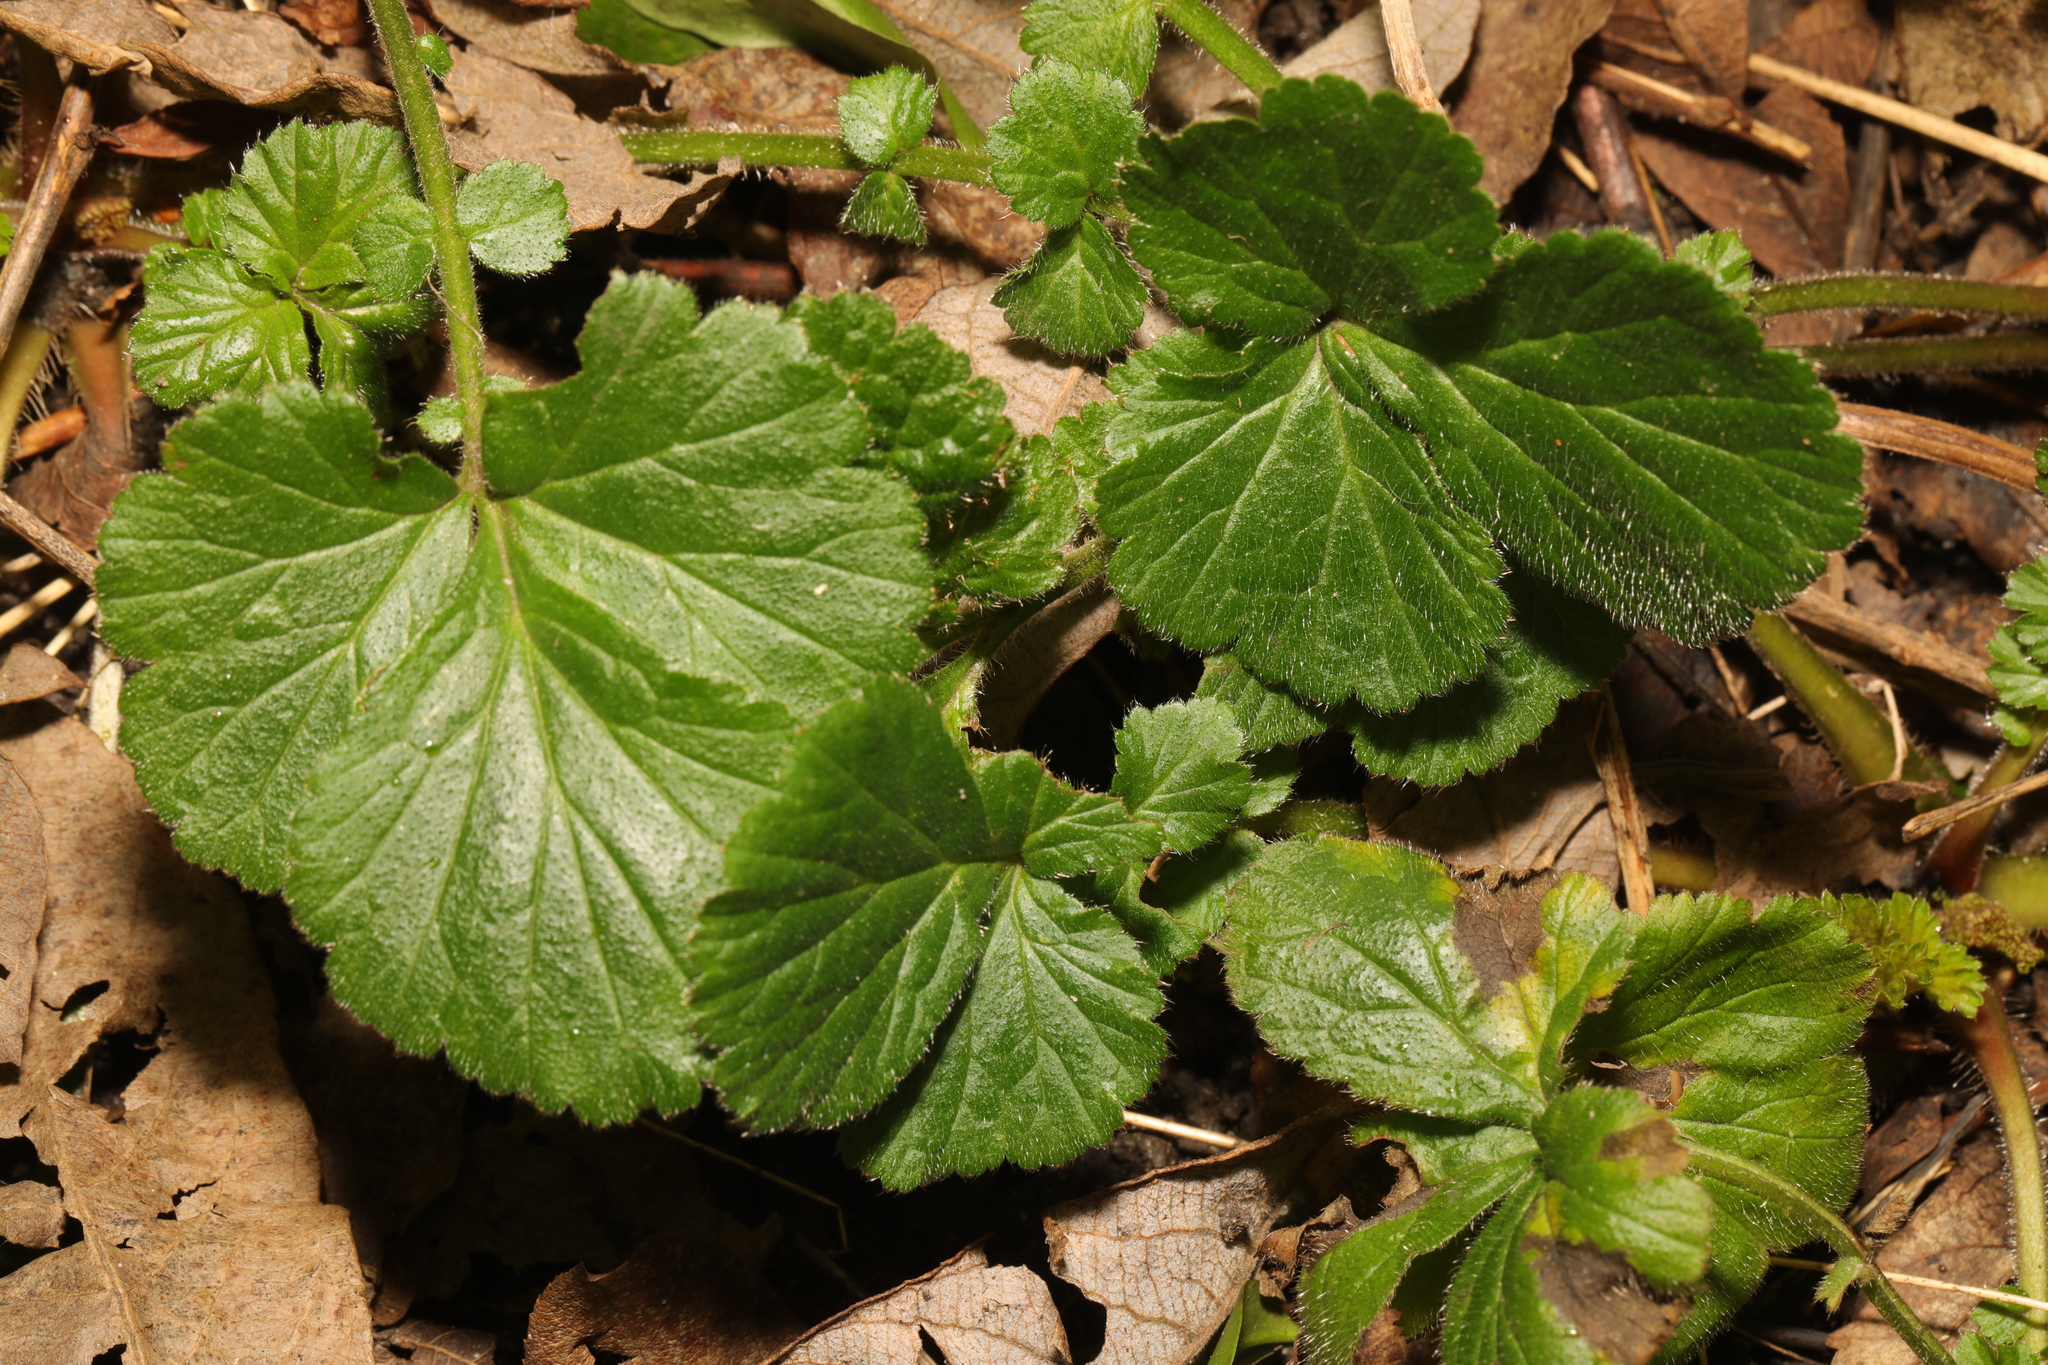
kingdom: Plantae
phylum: Tracheophyta
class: Magnoliopsida
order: Rosales
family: Rosaceae
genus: Geum
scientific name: Geum urbanum
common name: Wood avens
